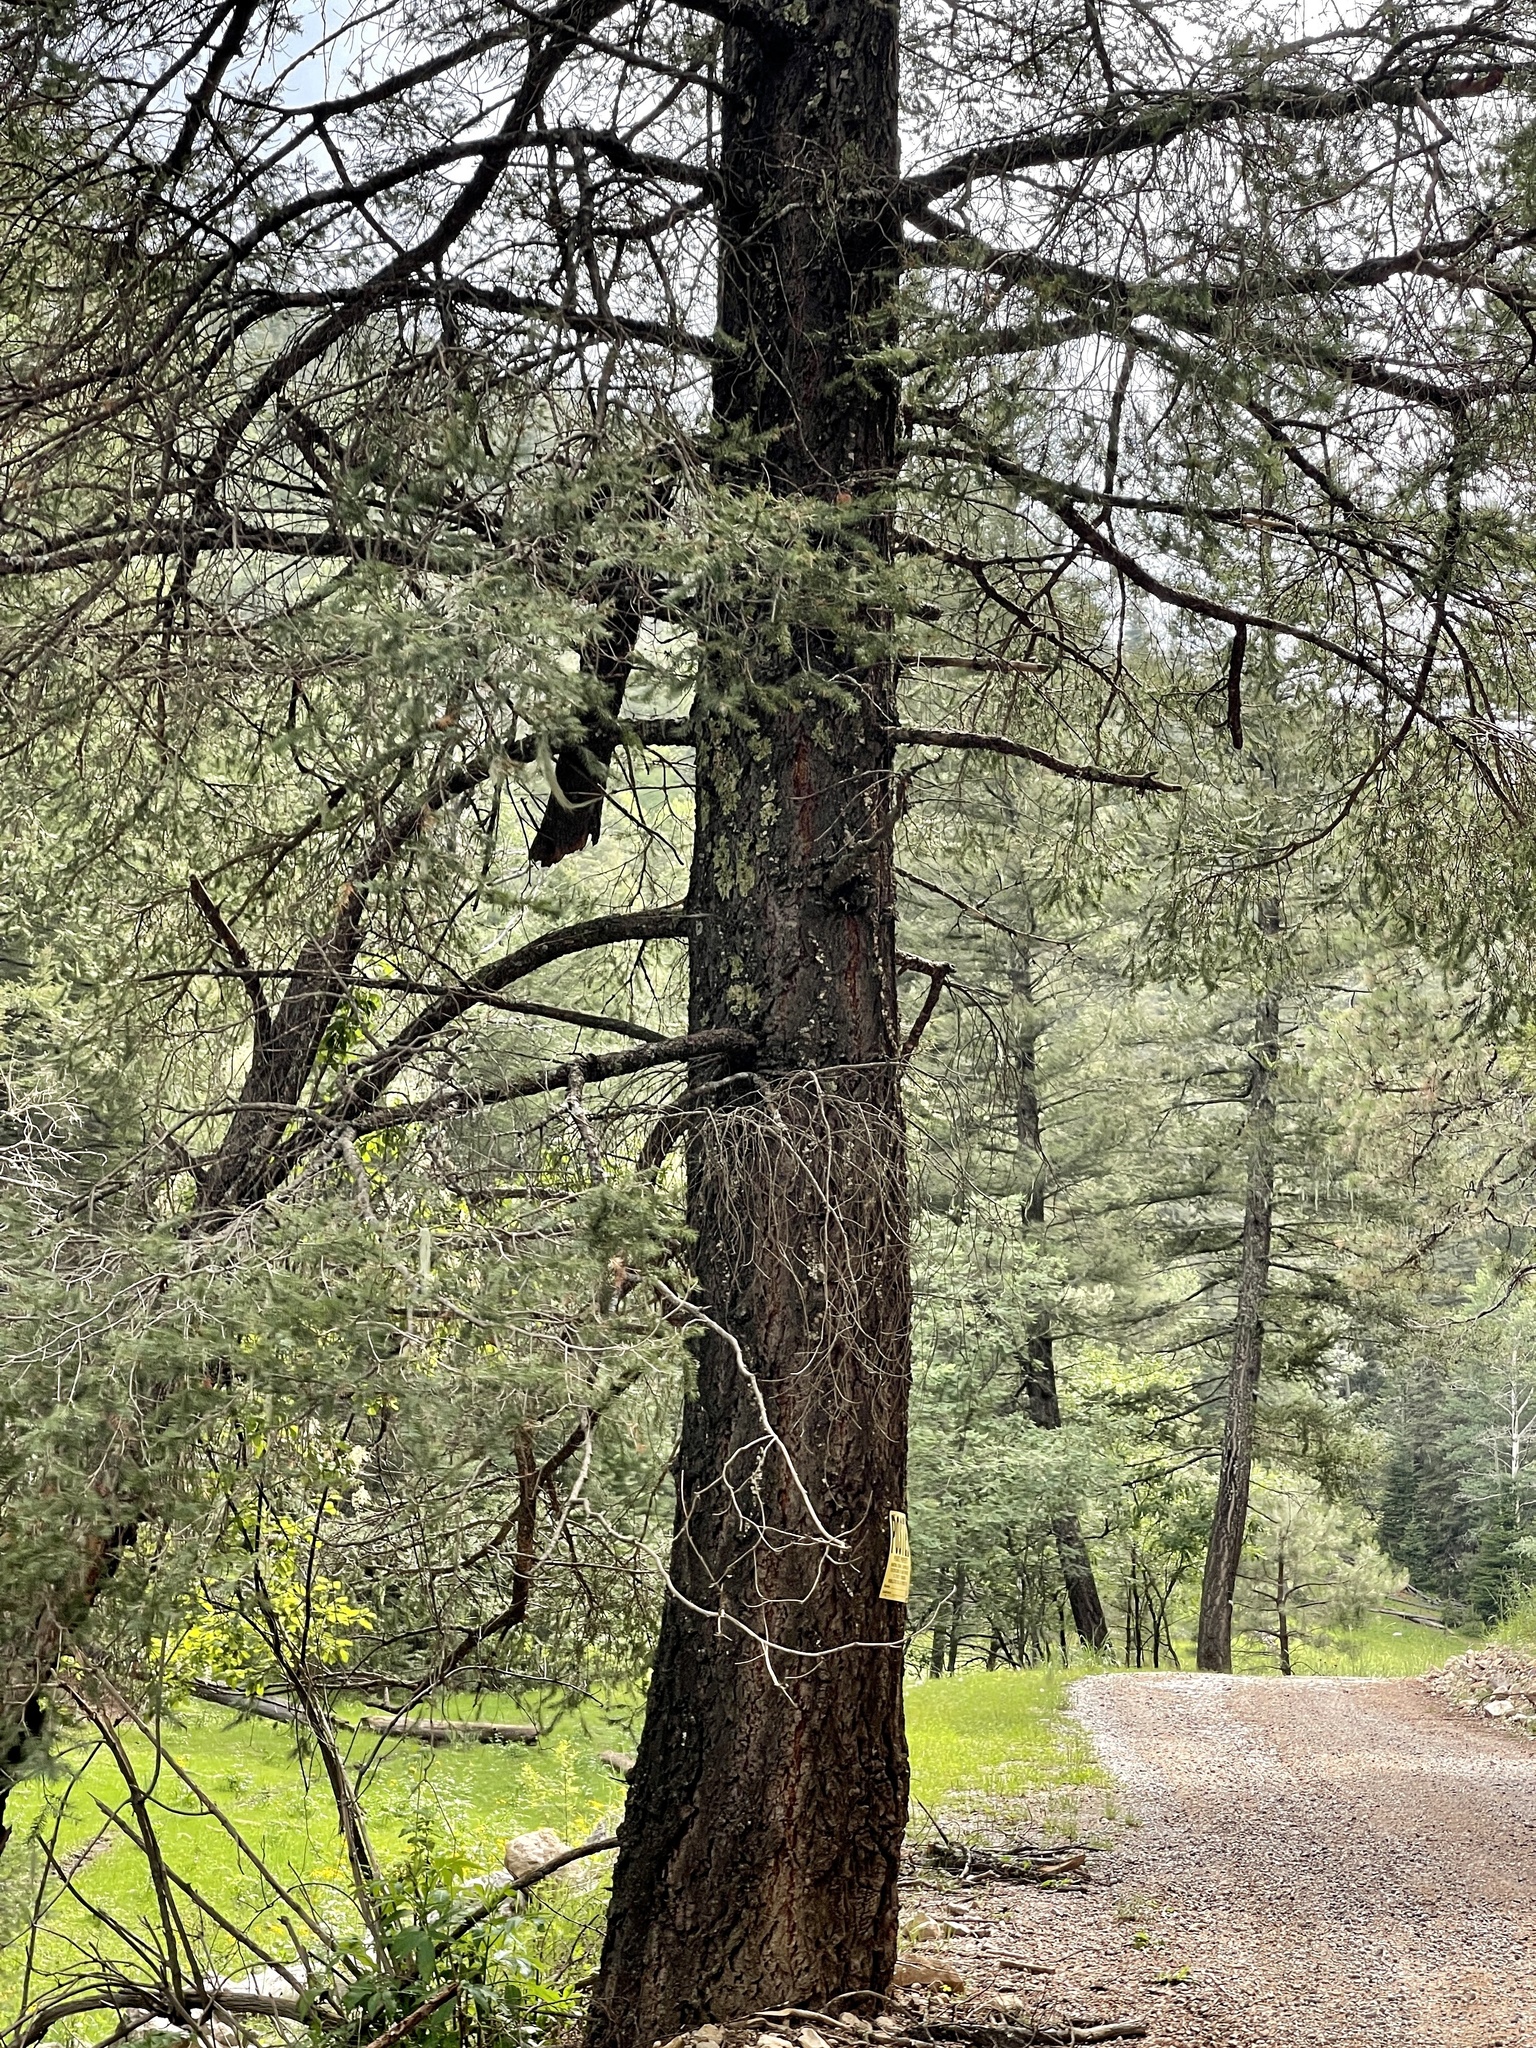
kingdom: Plantae
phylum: Tracheophyta
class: Pinopsida
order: Pinales
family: Pinaceae
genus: Pseudotsuga
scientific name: Pseudotsuga menziesii
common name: Douglas fir
